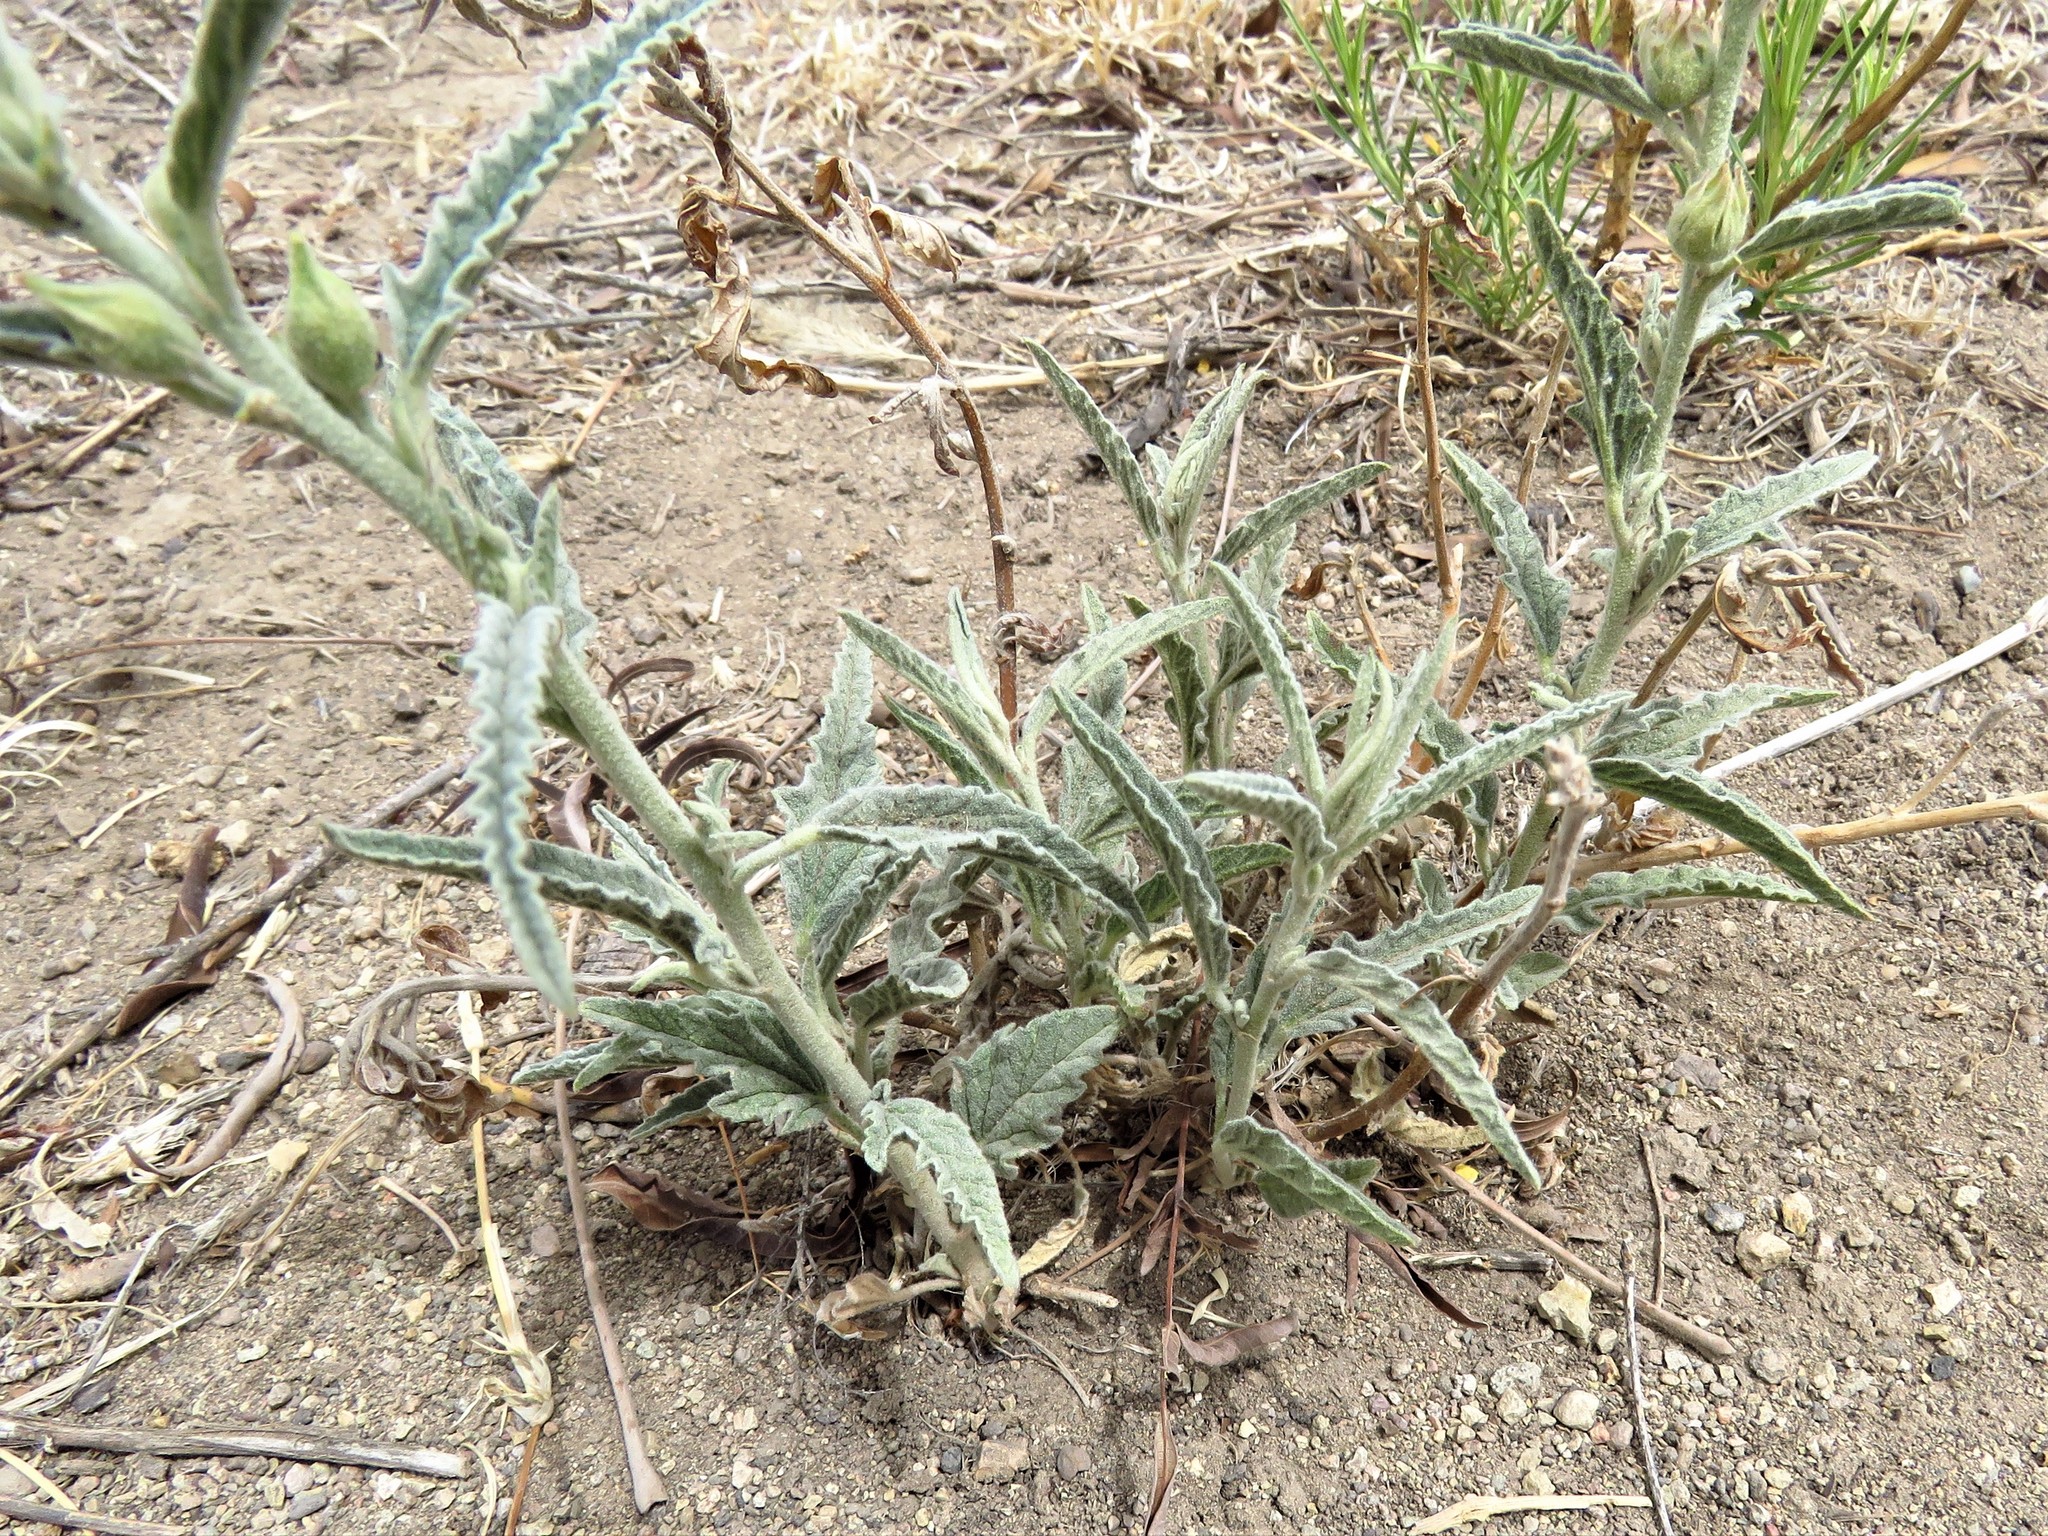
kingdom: Plantae
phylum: Tracheophyta
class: Magnoliopsida
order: Malvales
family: Malvaceae
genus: Sphaeralcea
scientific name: Sphaeralcea angustifolia
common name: Copper globe-mallow
